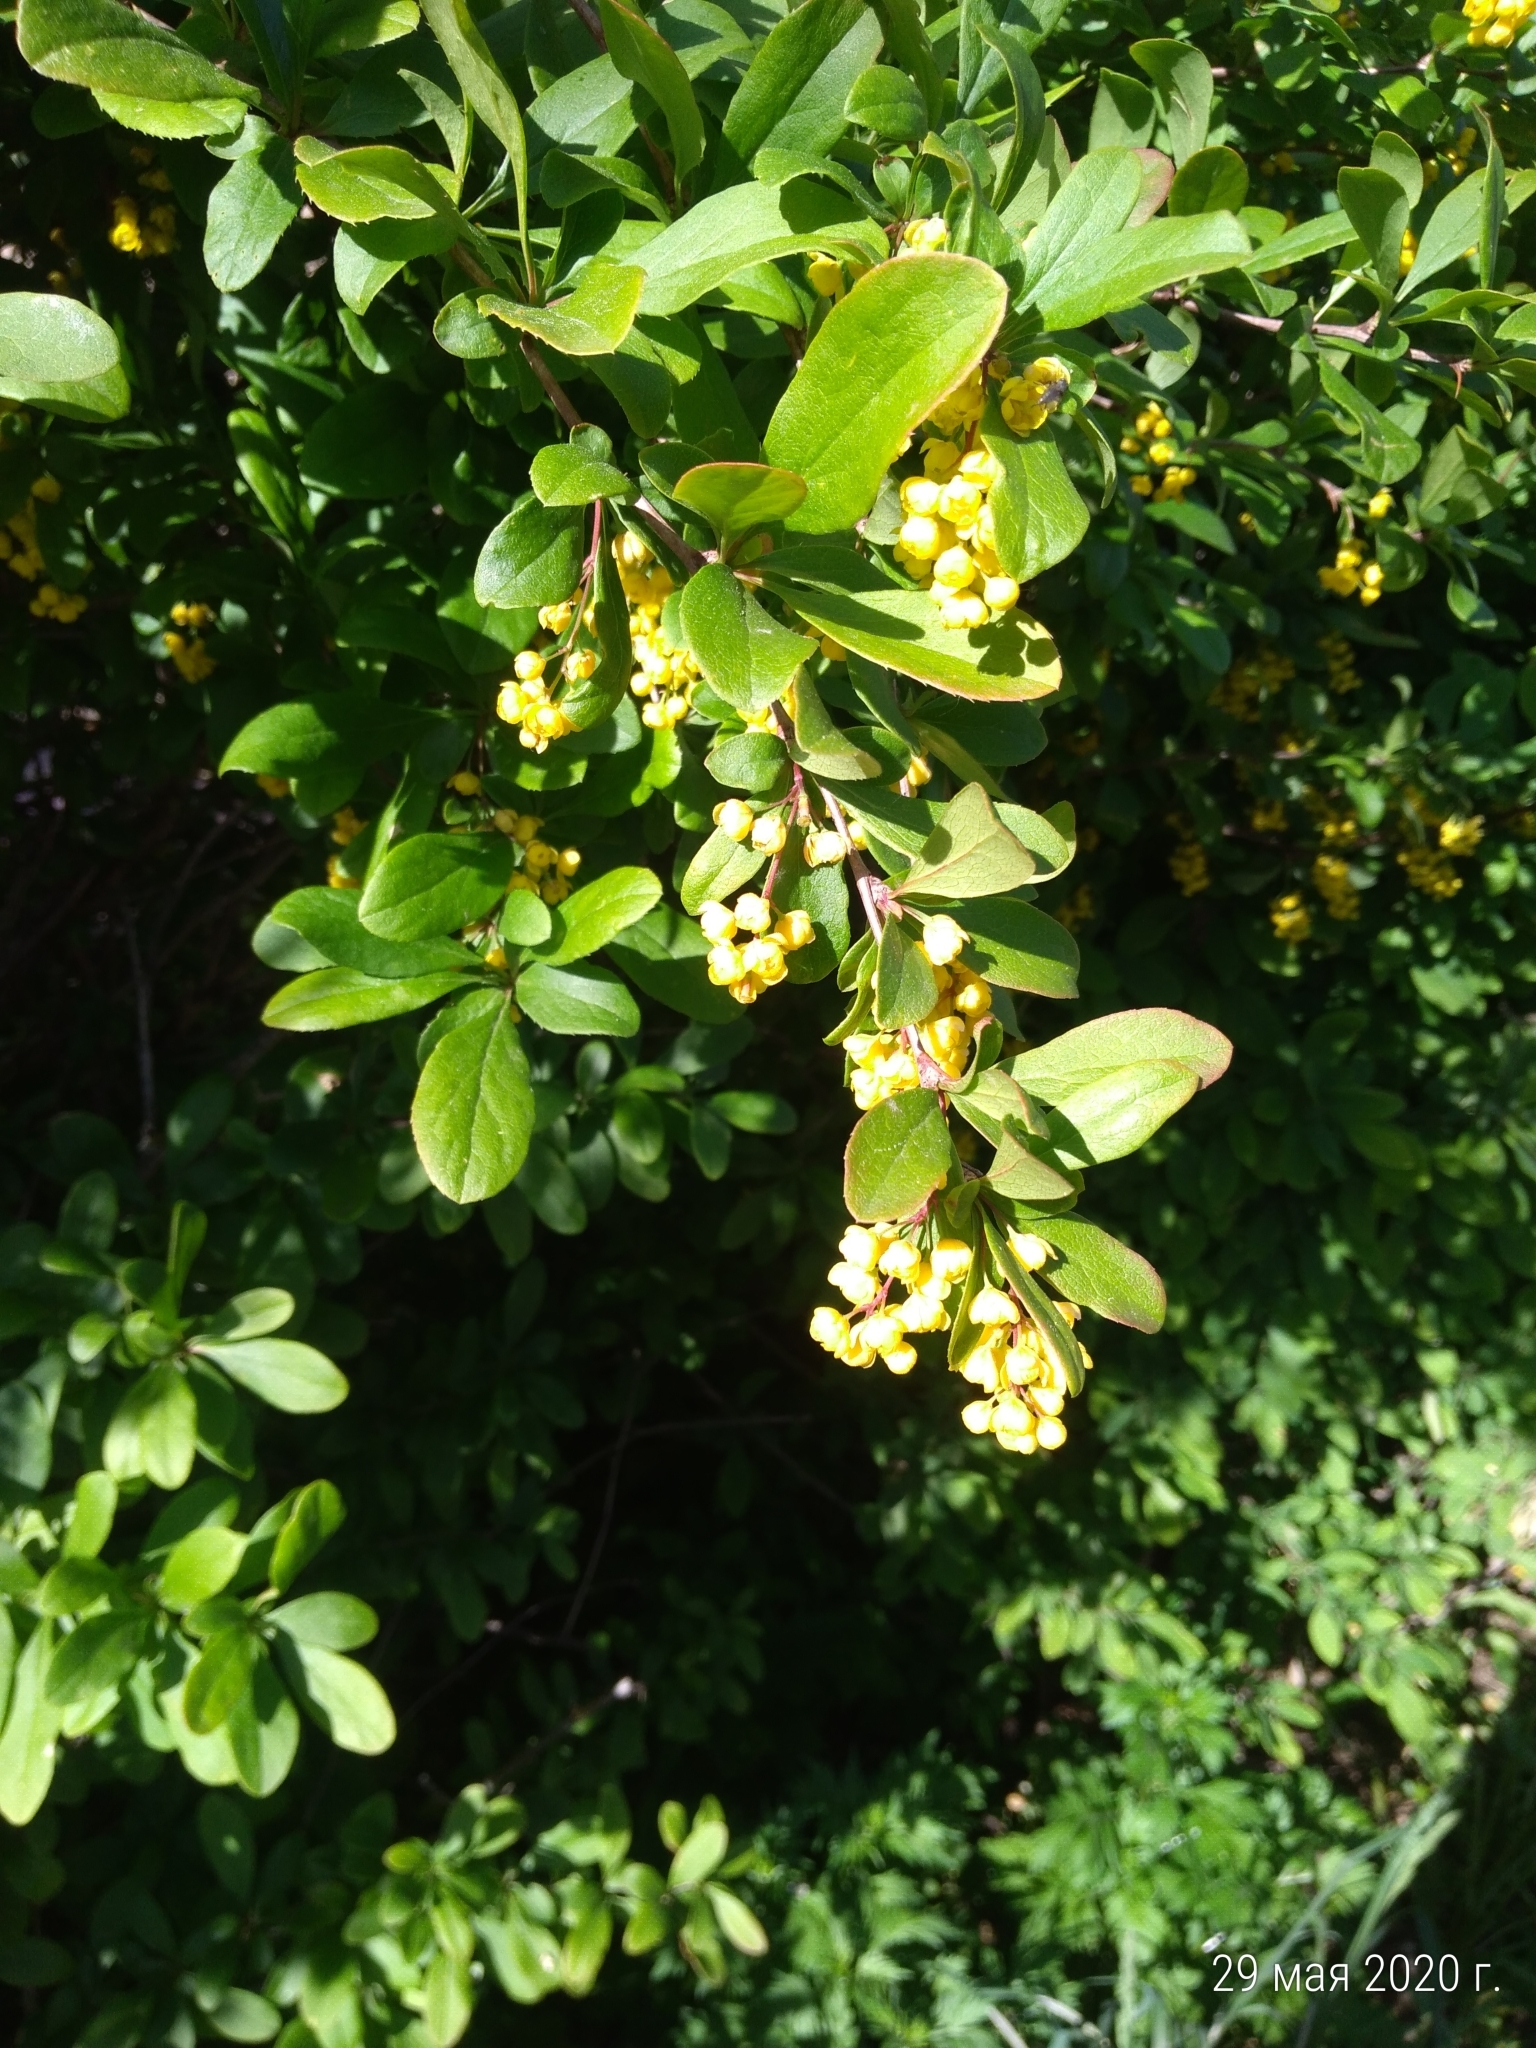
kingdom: Plantae
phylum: Tracheophyta
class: Magnoliopsida
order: Ranunculales
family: Berberidaceae
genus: Berberis
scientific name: Berberis vulgaris
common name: Barberry
